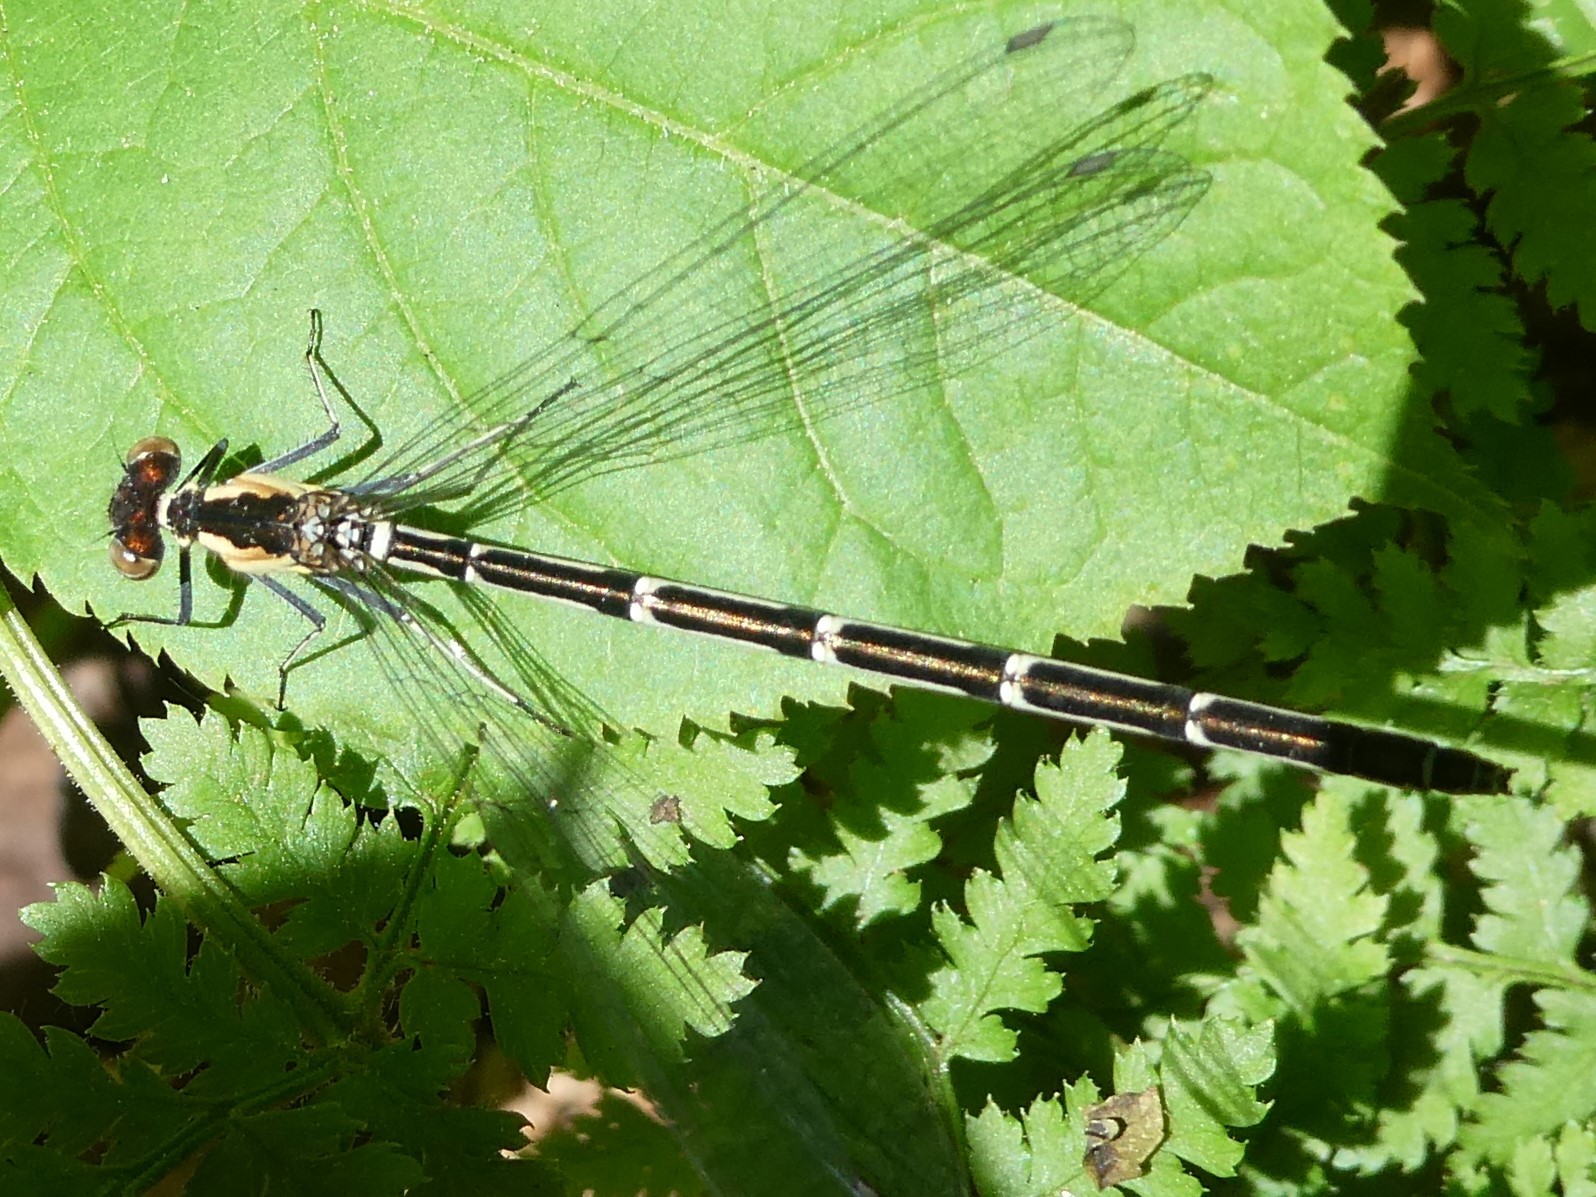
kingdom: Animalia
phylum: Arthropoda
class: Insecta
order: Odonata
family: Coenagrionidae
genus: Chromagrion
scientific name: Chromagrion conditum
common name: Aurora damsel
